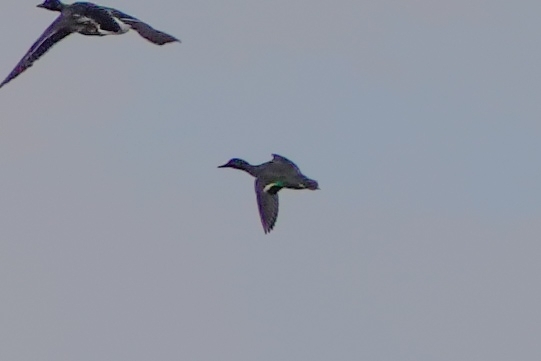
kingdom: Animalia
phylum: Chordata
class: Aves
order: Anseriformes
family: Anatidae
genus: Anas
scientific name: Anas crecca
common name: Eurasian teal
